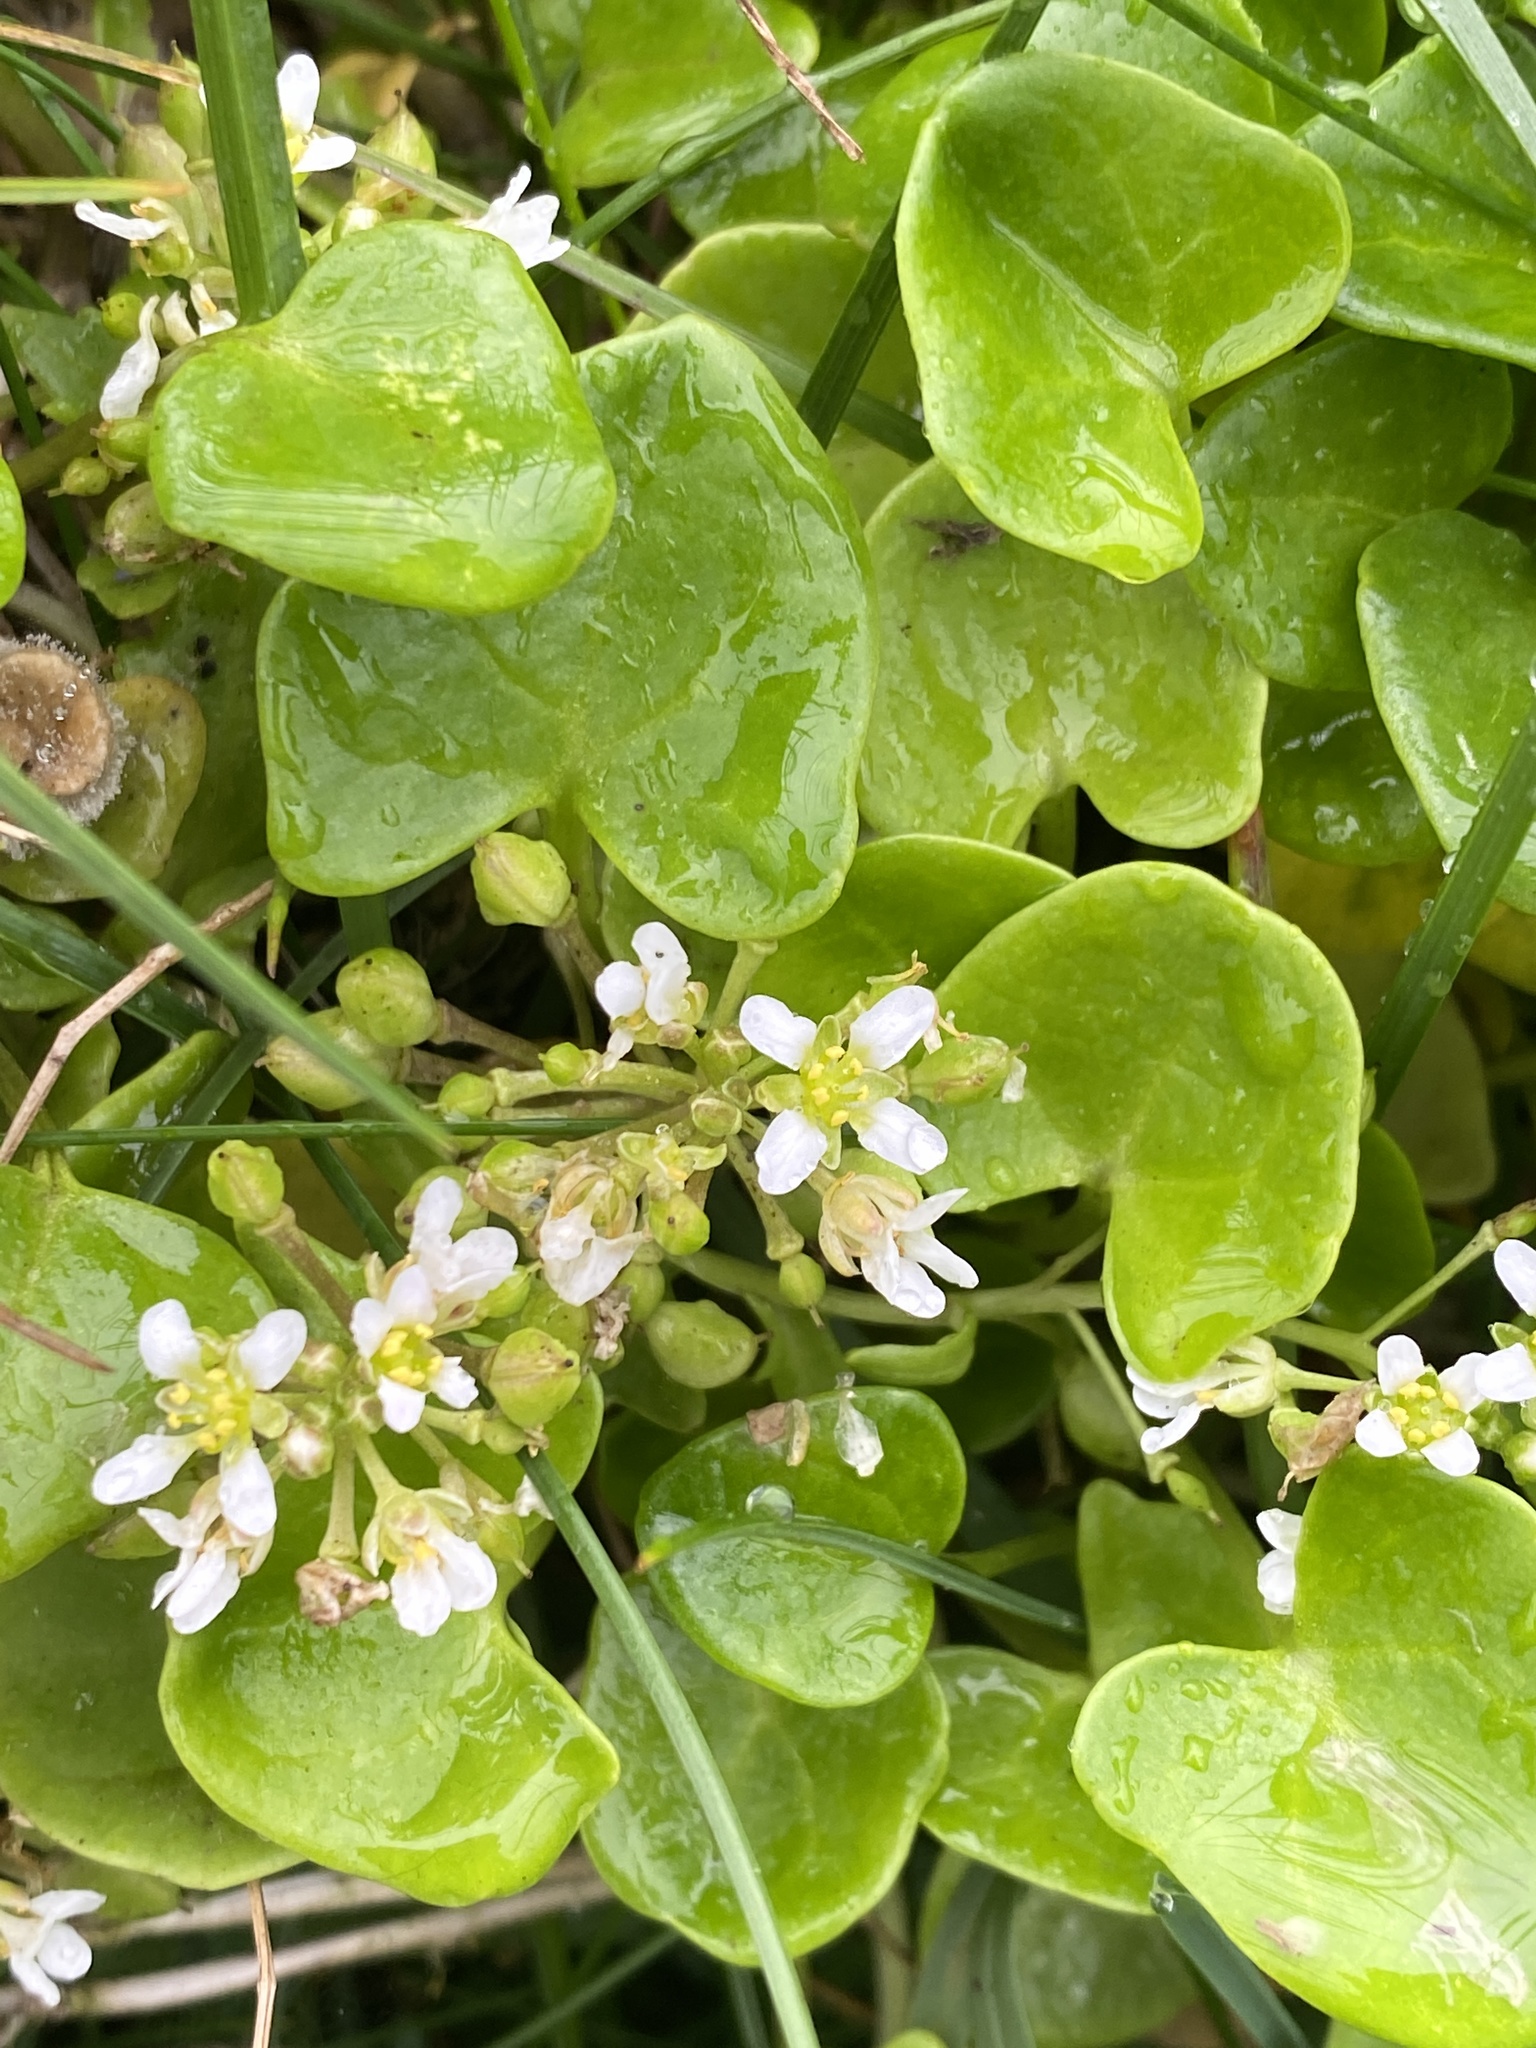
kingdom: Plantae
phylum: Tracheophyta
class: Magnoliopsida
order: Brassicales
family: Brassicaceae
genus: Cochlearia
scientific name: Cochlearia officinalis
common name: Scurvy-grass
